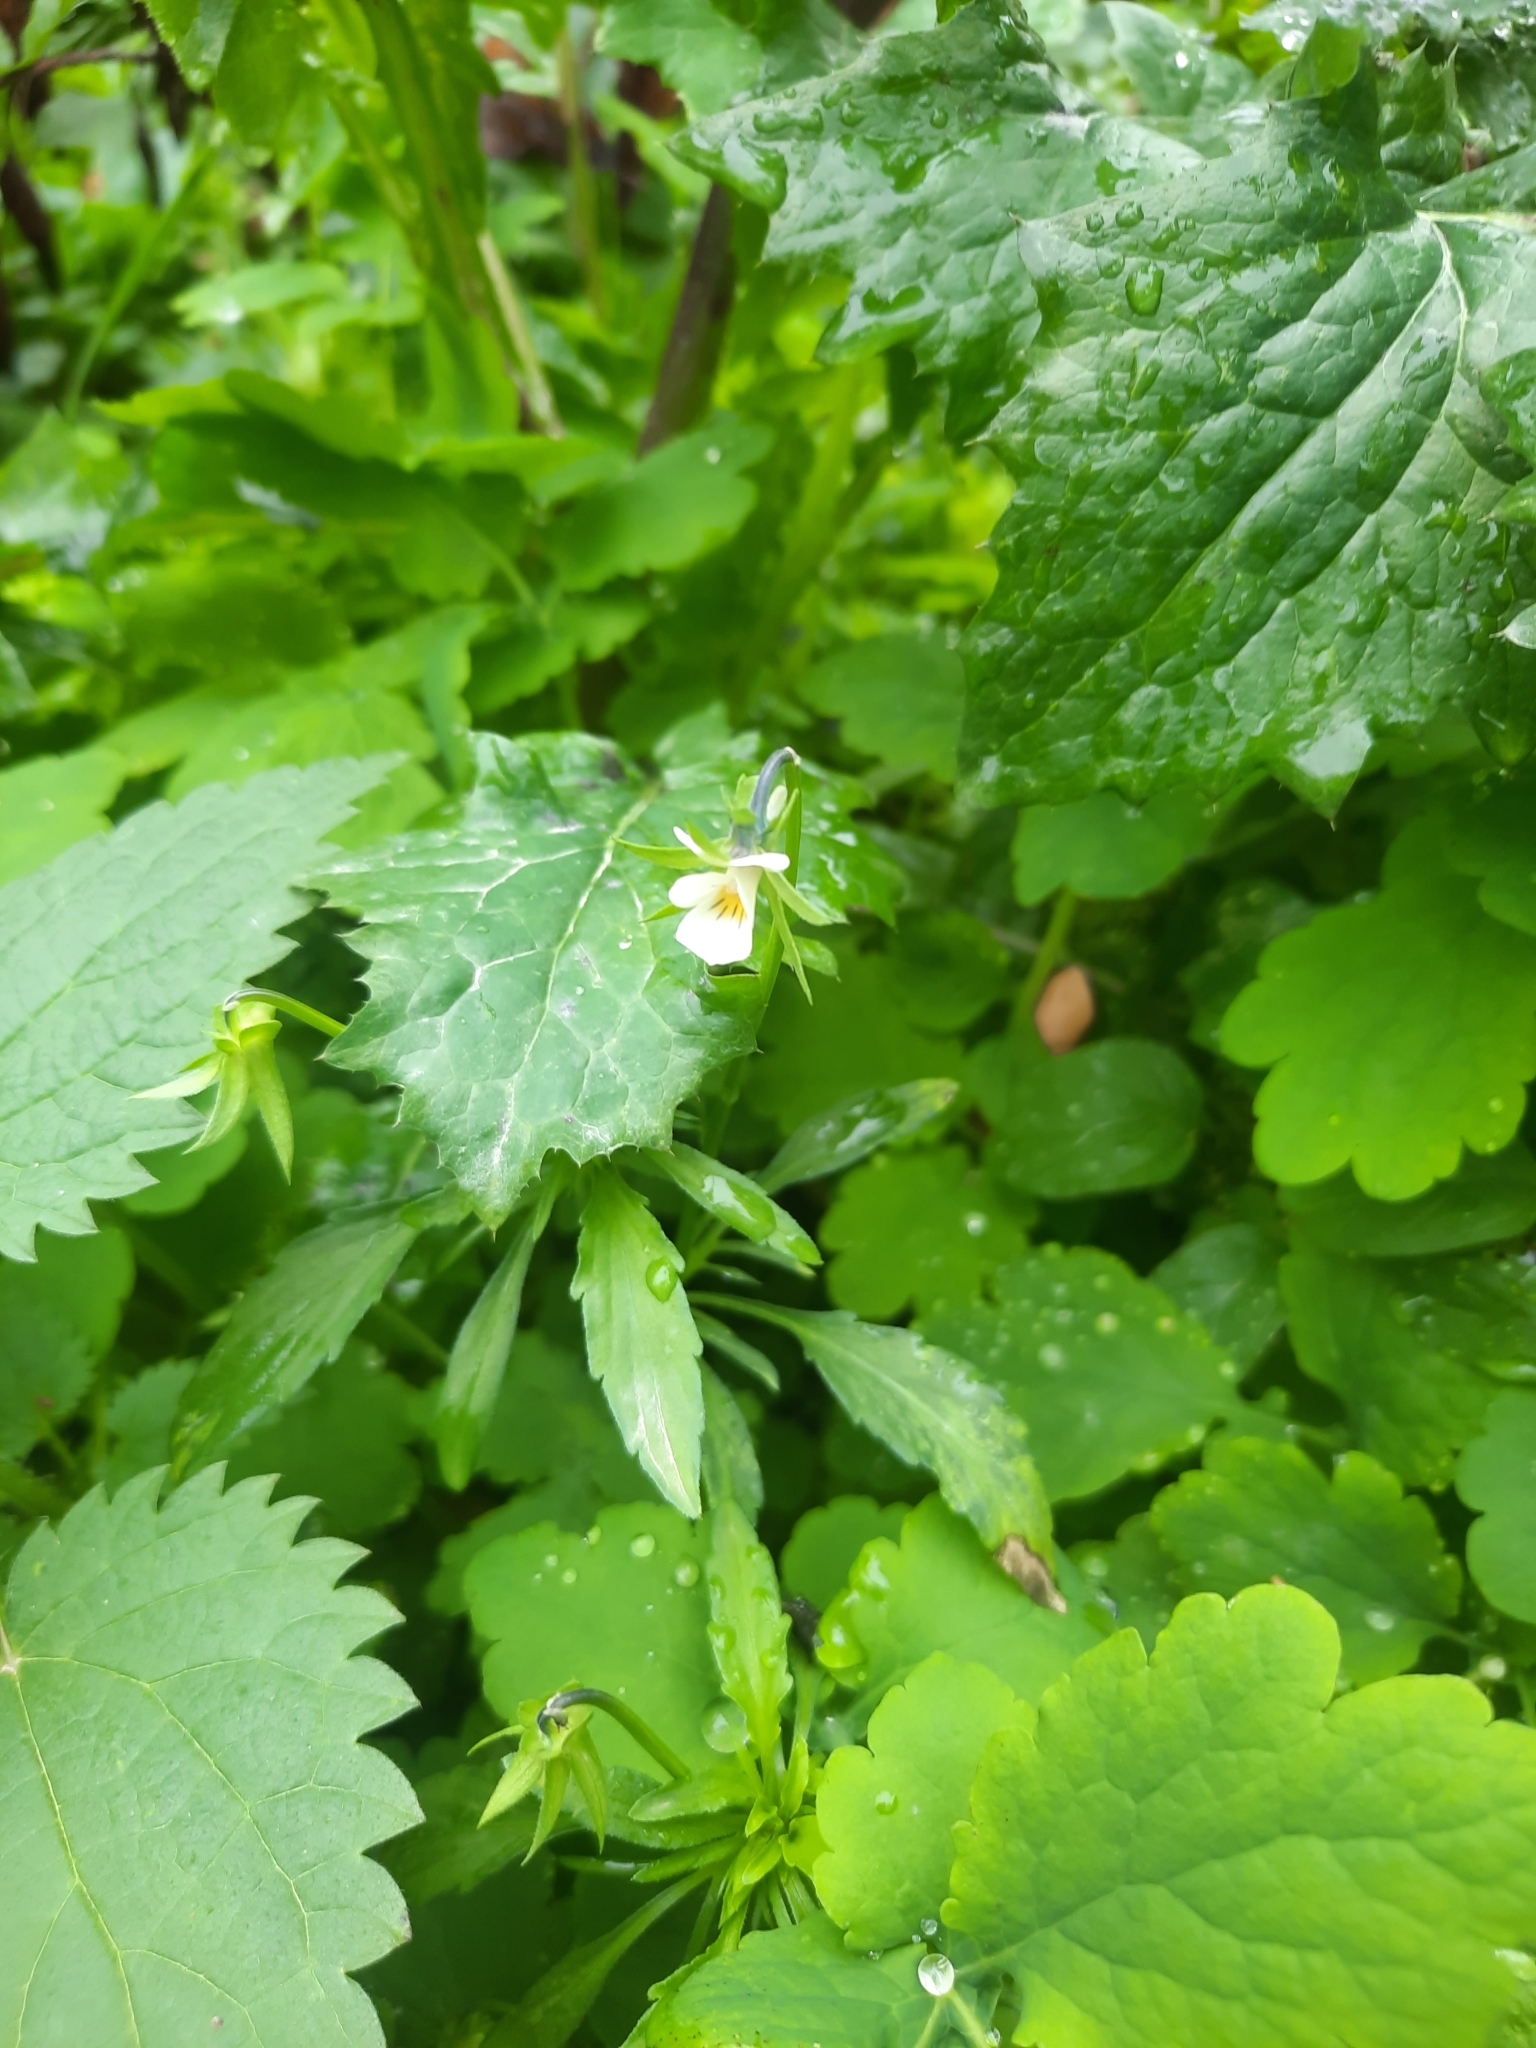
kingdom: Plantae
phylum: Tracheophyta
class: Magnoliopsida
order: Malpighiales
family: Violaceae
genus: Viola
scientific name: Viola arvensis
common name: Field pansy
